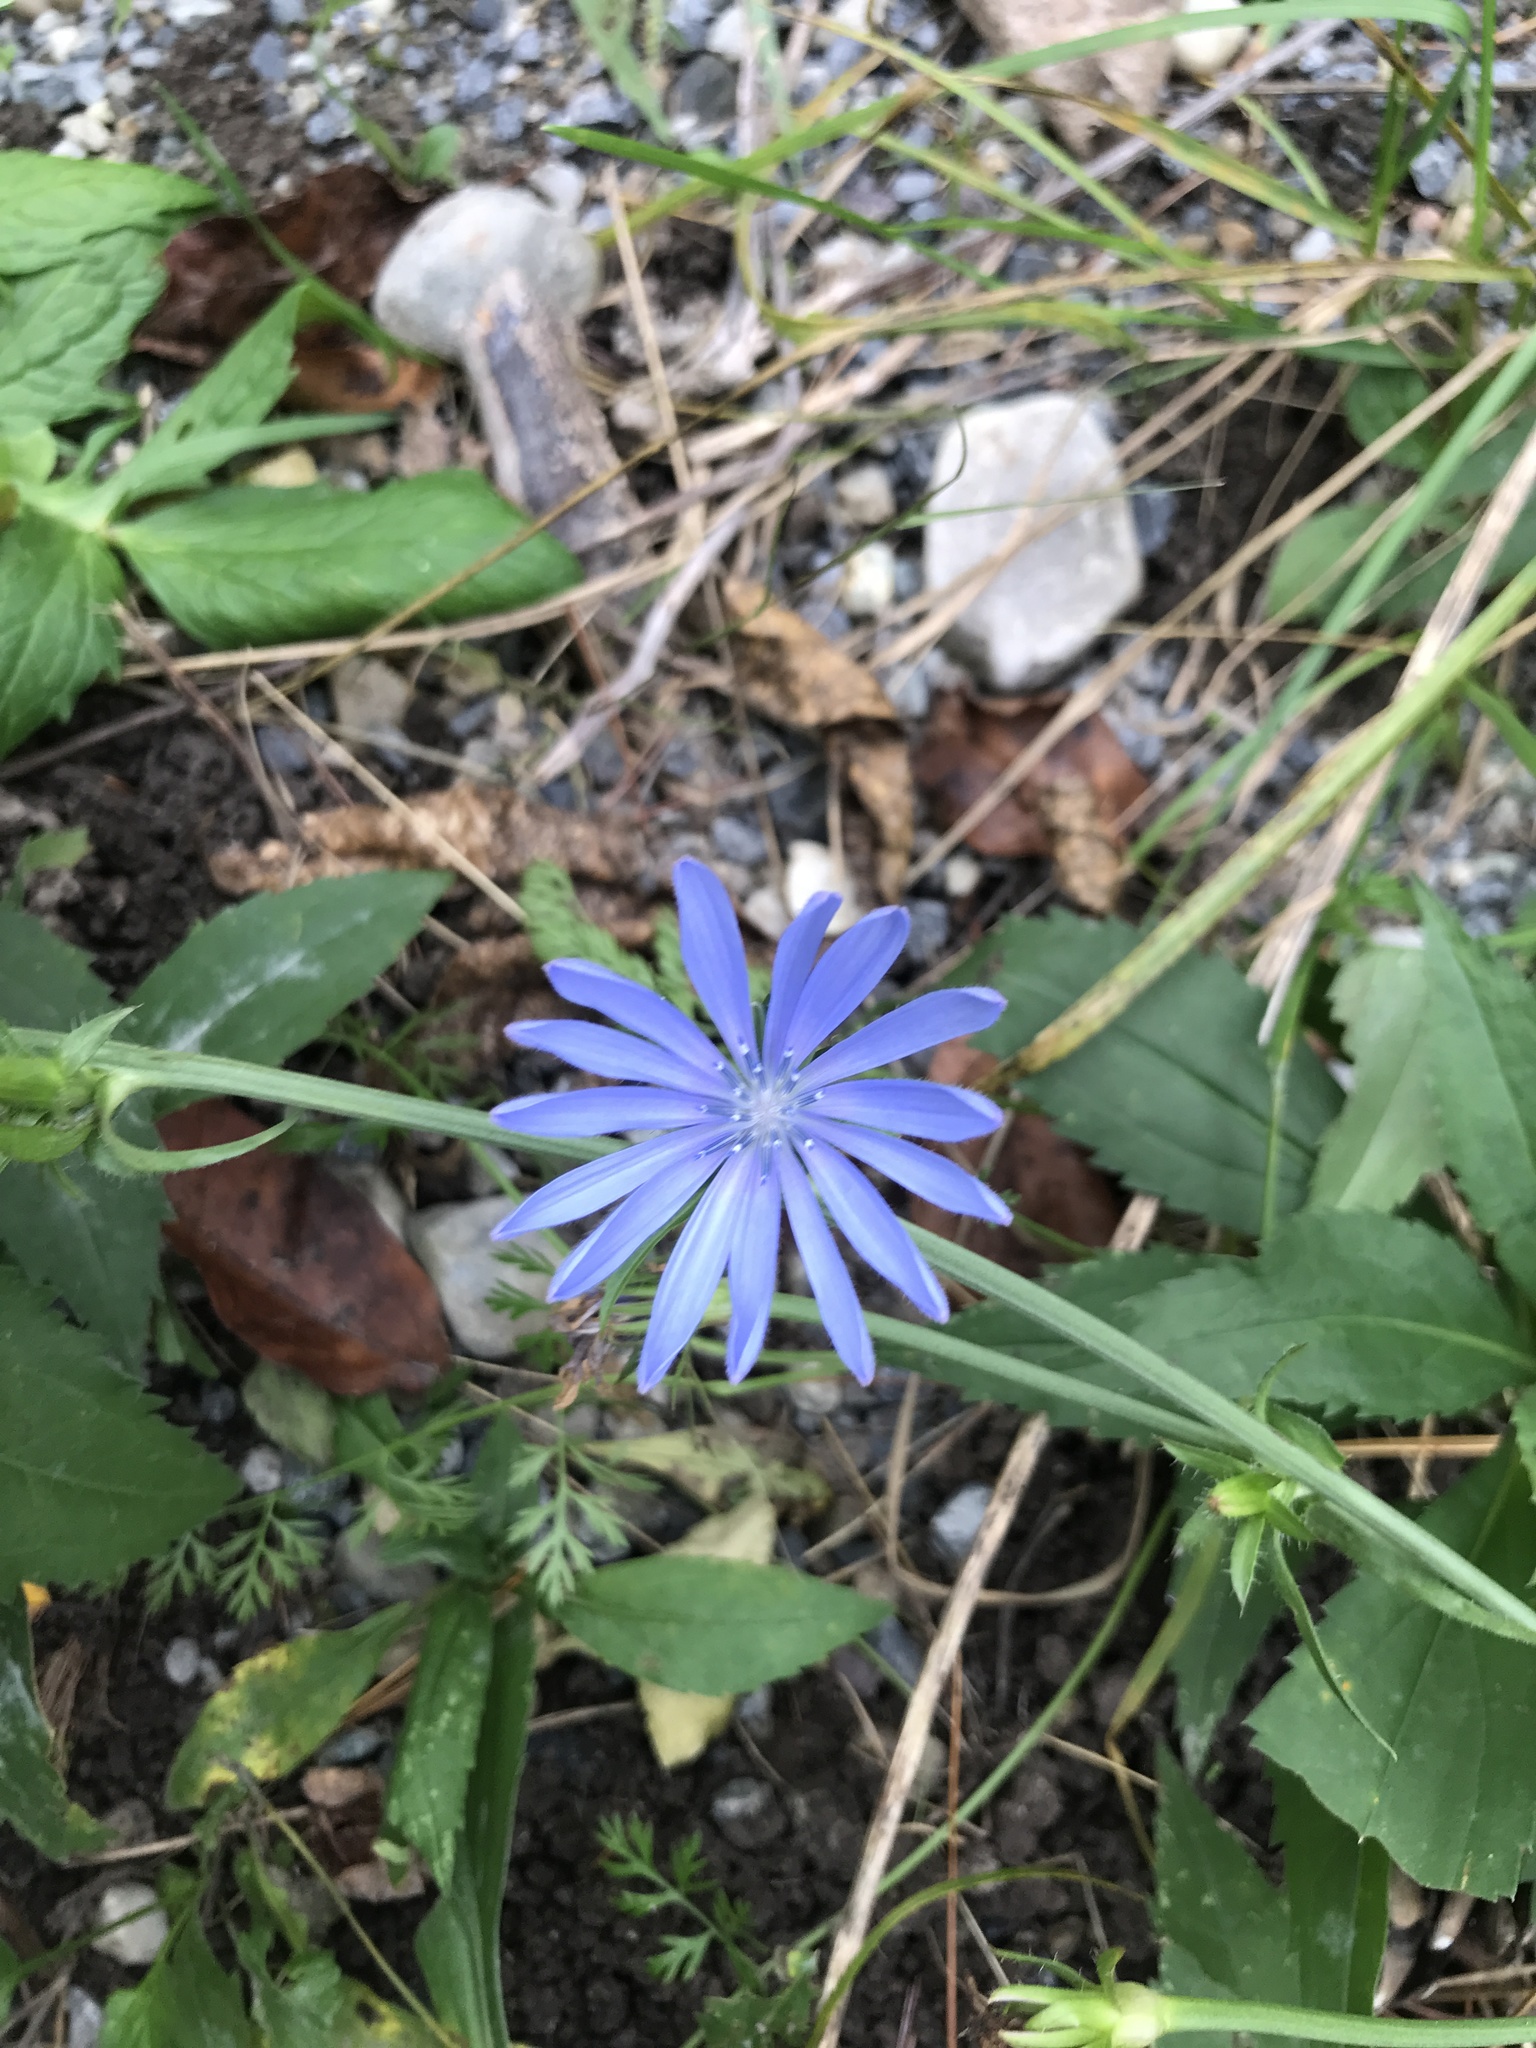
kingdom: Plantae
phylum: Tracheophyta
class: Magnoliopsida
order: Asterales
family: Asteraceae
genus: Cichorium
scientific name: Cichorium intybus
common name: Chicory
